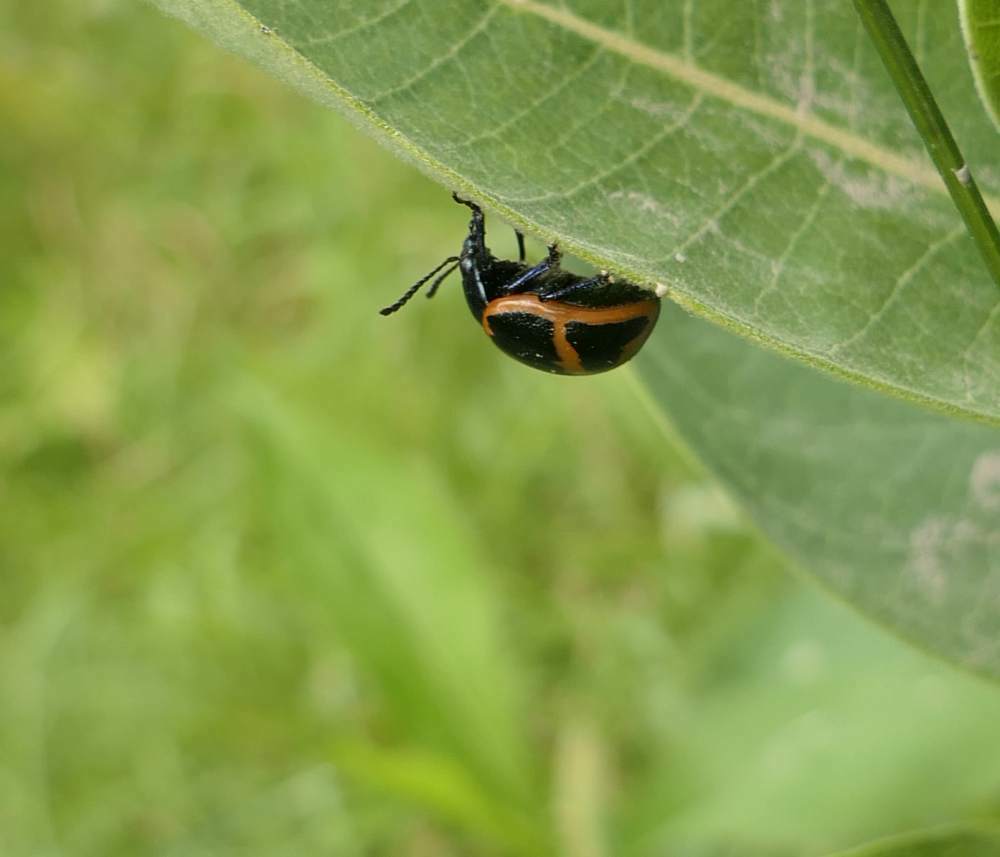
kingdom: Animalia
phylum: Arthropoda
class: Insecta
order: Coleoptera
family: Chrysomelidae
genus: Labidomera
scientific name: Labidomera clivicollis
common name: Swamp milkweed leaf beetle
